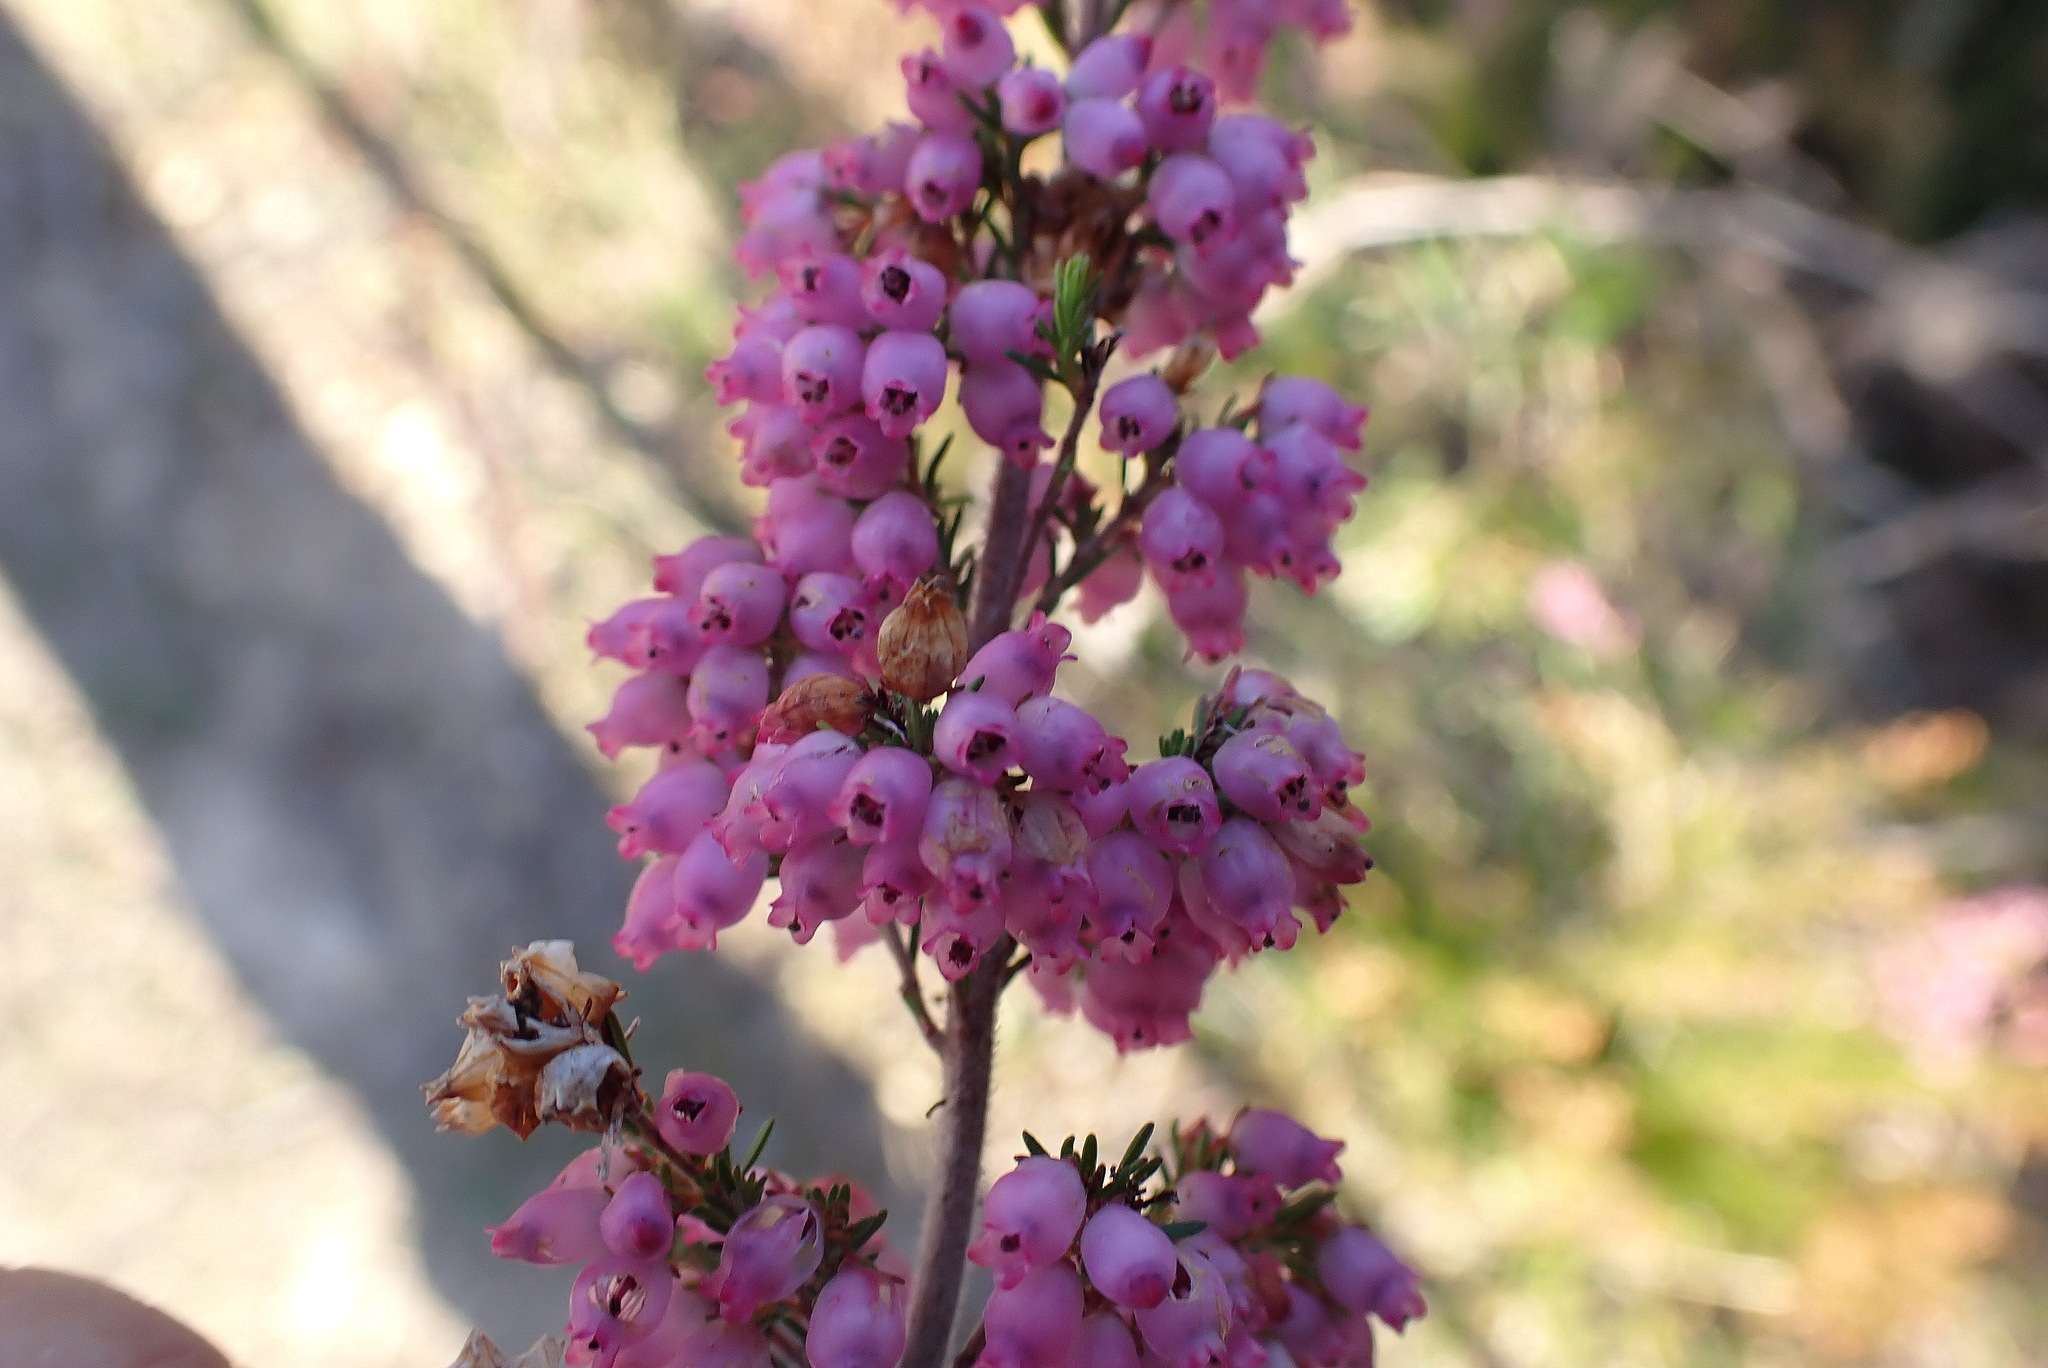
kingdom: Plantae
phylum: Tracheophyta
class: Magnoliopsida
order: Ericales
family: Ericaceae
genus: Erica
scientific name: Erica gracilis
